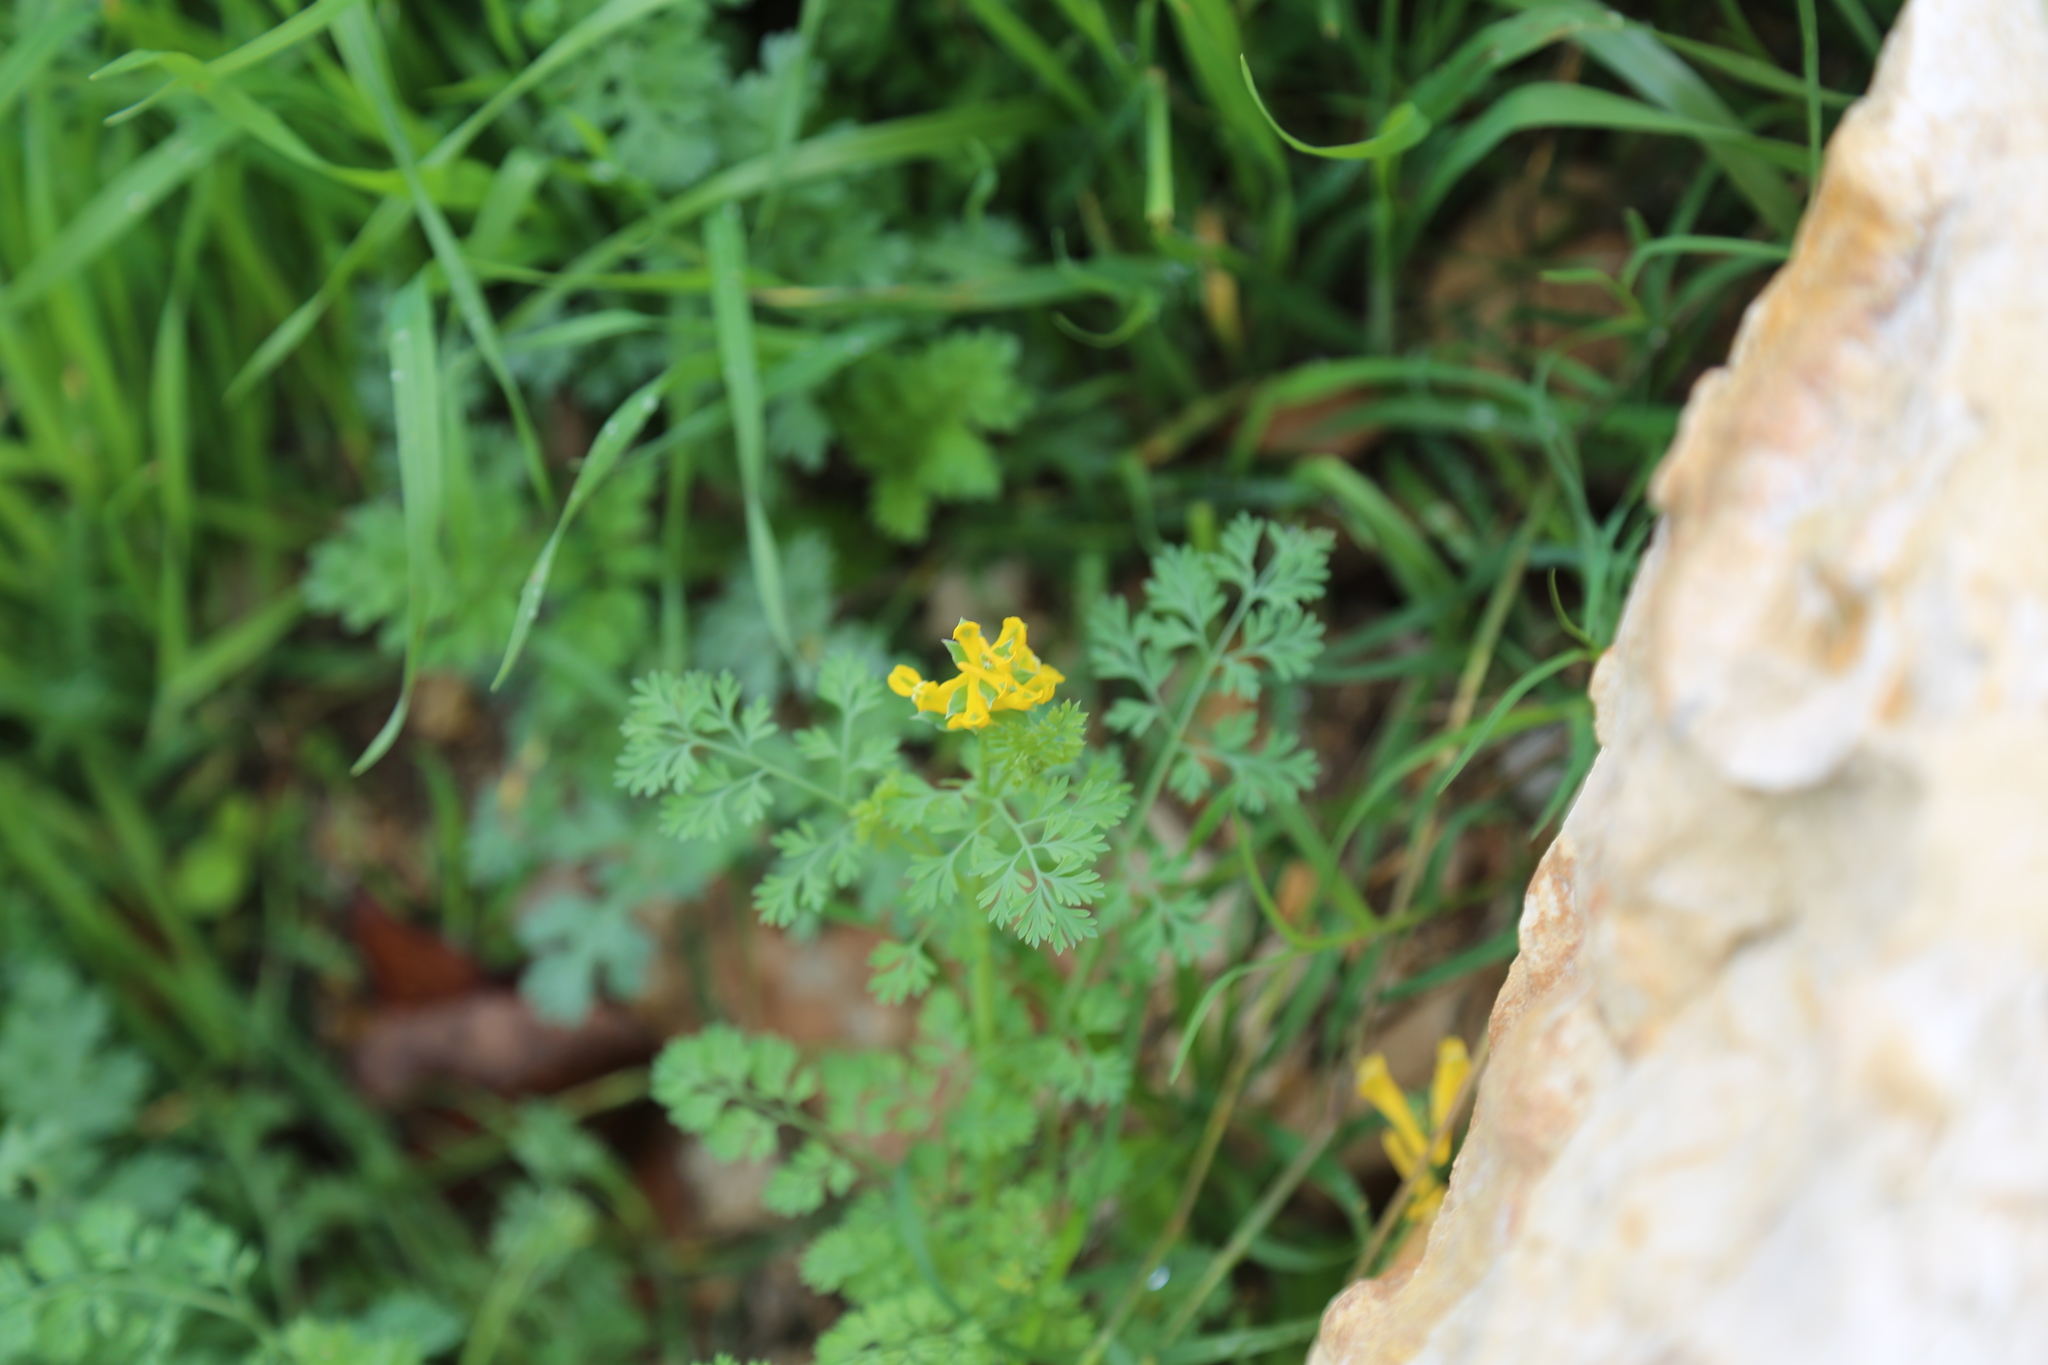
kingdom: Plantae
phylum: Tracheophyta
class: Magnoliopsida
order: Ranunculales
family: Papaveraceae
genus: Corydalis
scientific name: Corydalis aurea
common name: Golden corydalis
